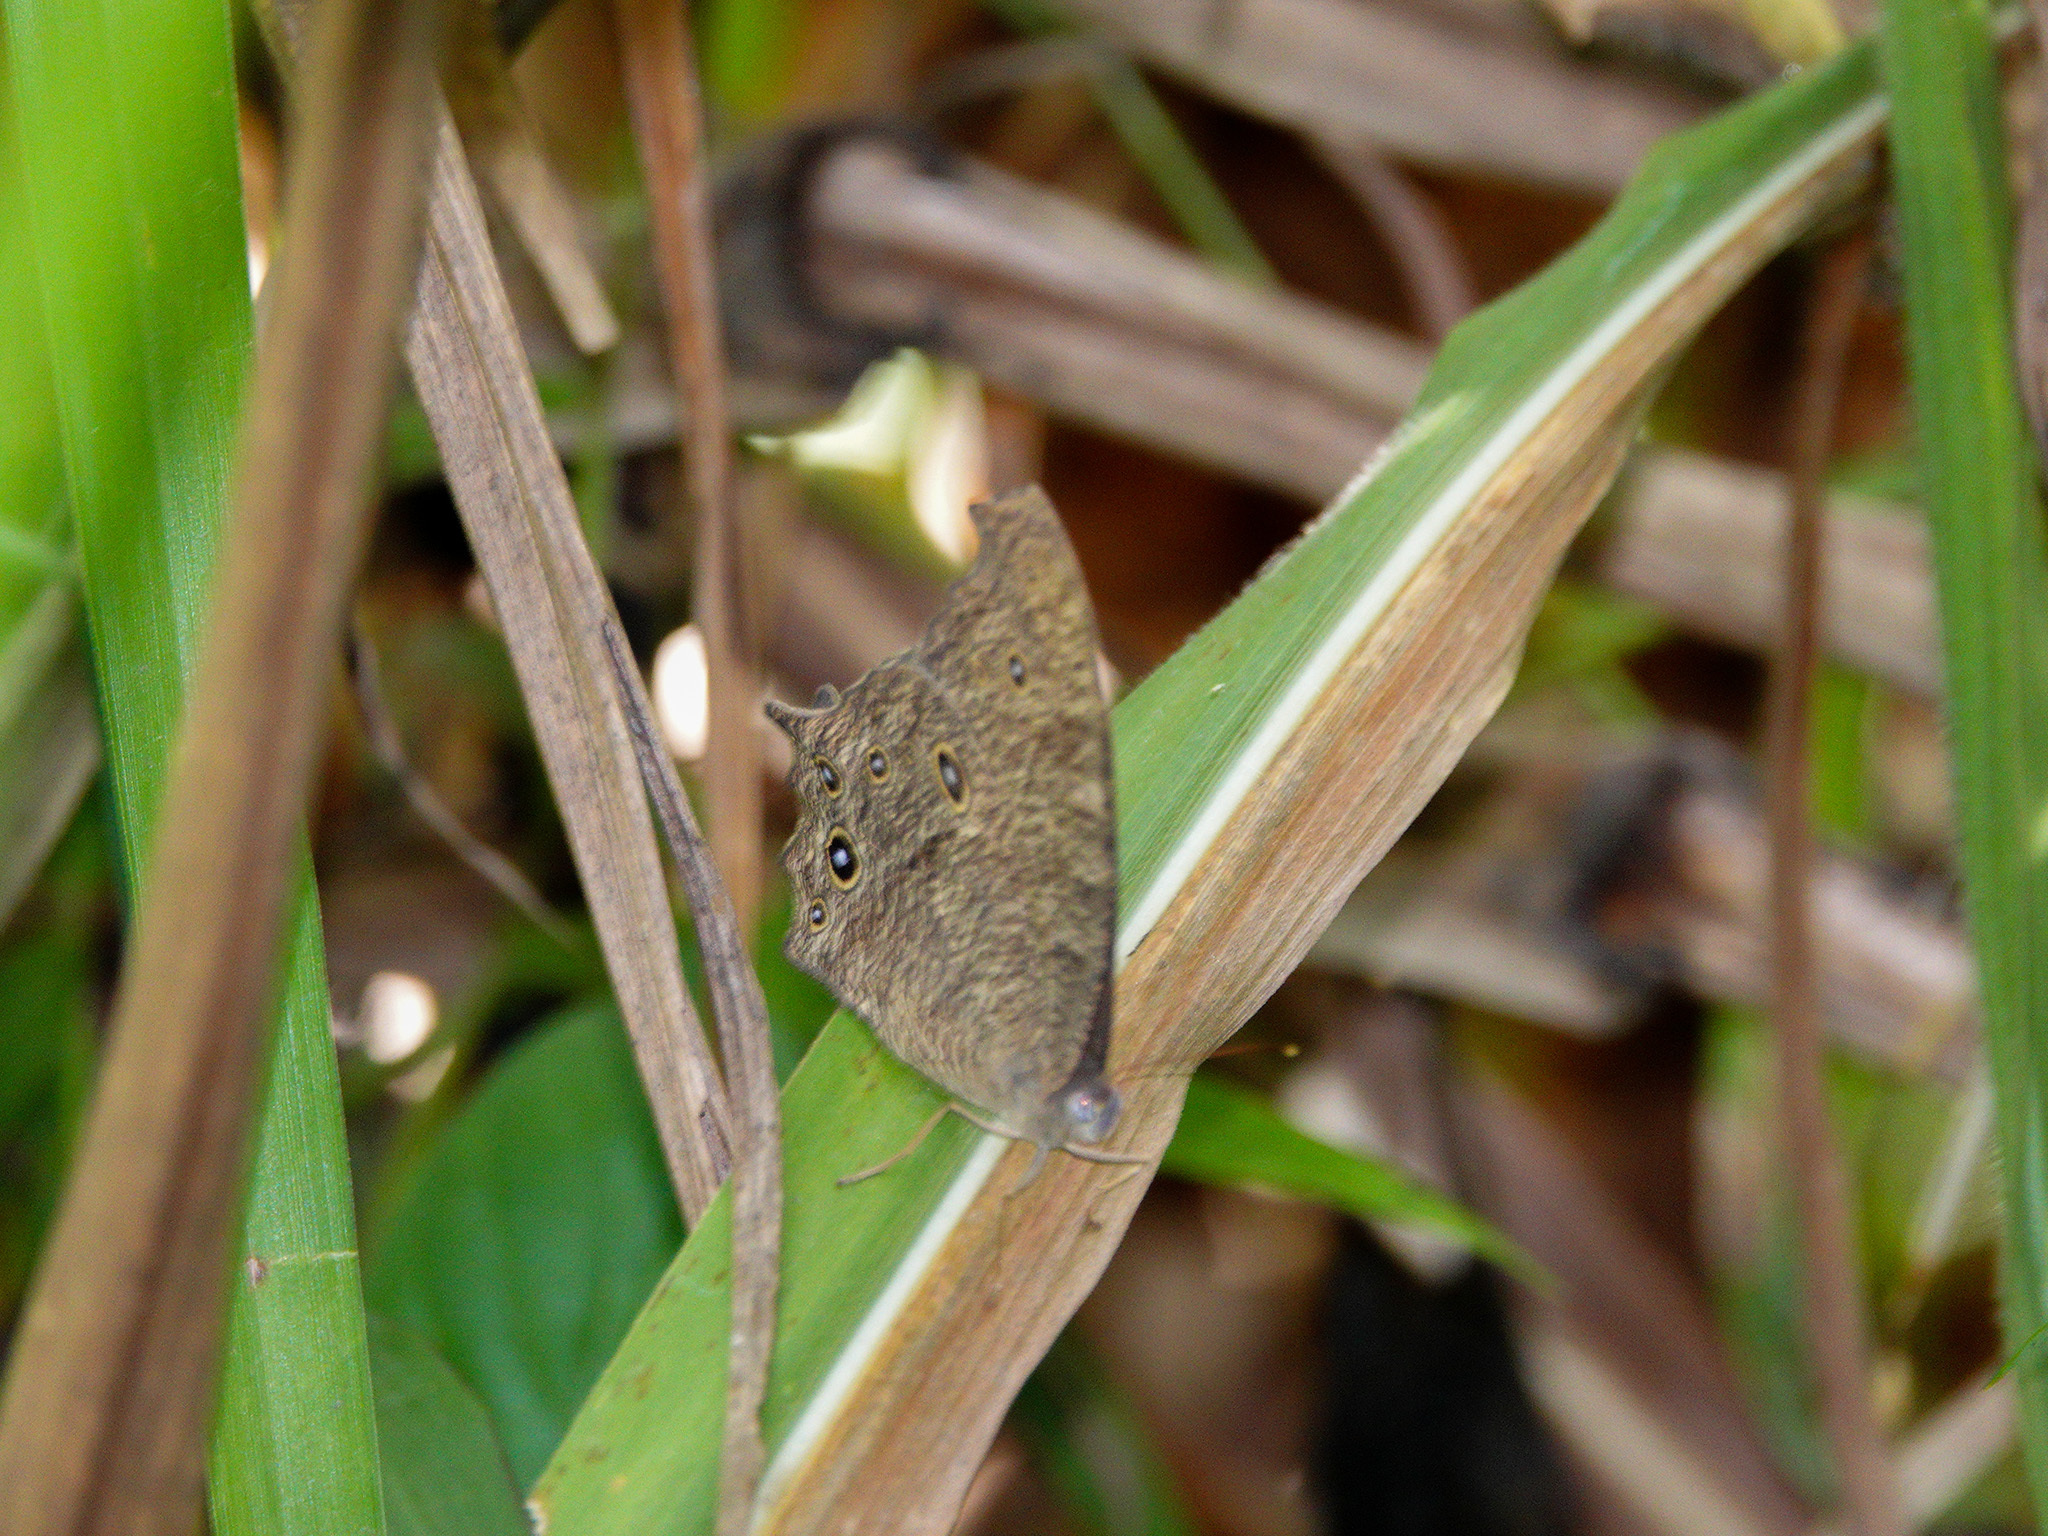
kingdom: Animalia
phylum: Arthropoda
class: Insecta
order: Lepidoptera
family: Nymphalidae
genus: Melanitis
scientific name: Melanitis leda
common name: Twilight brown
